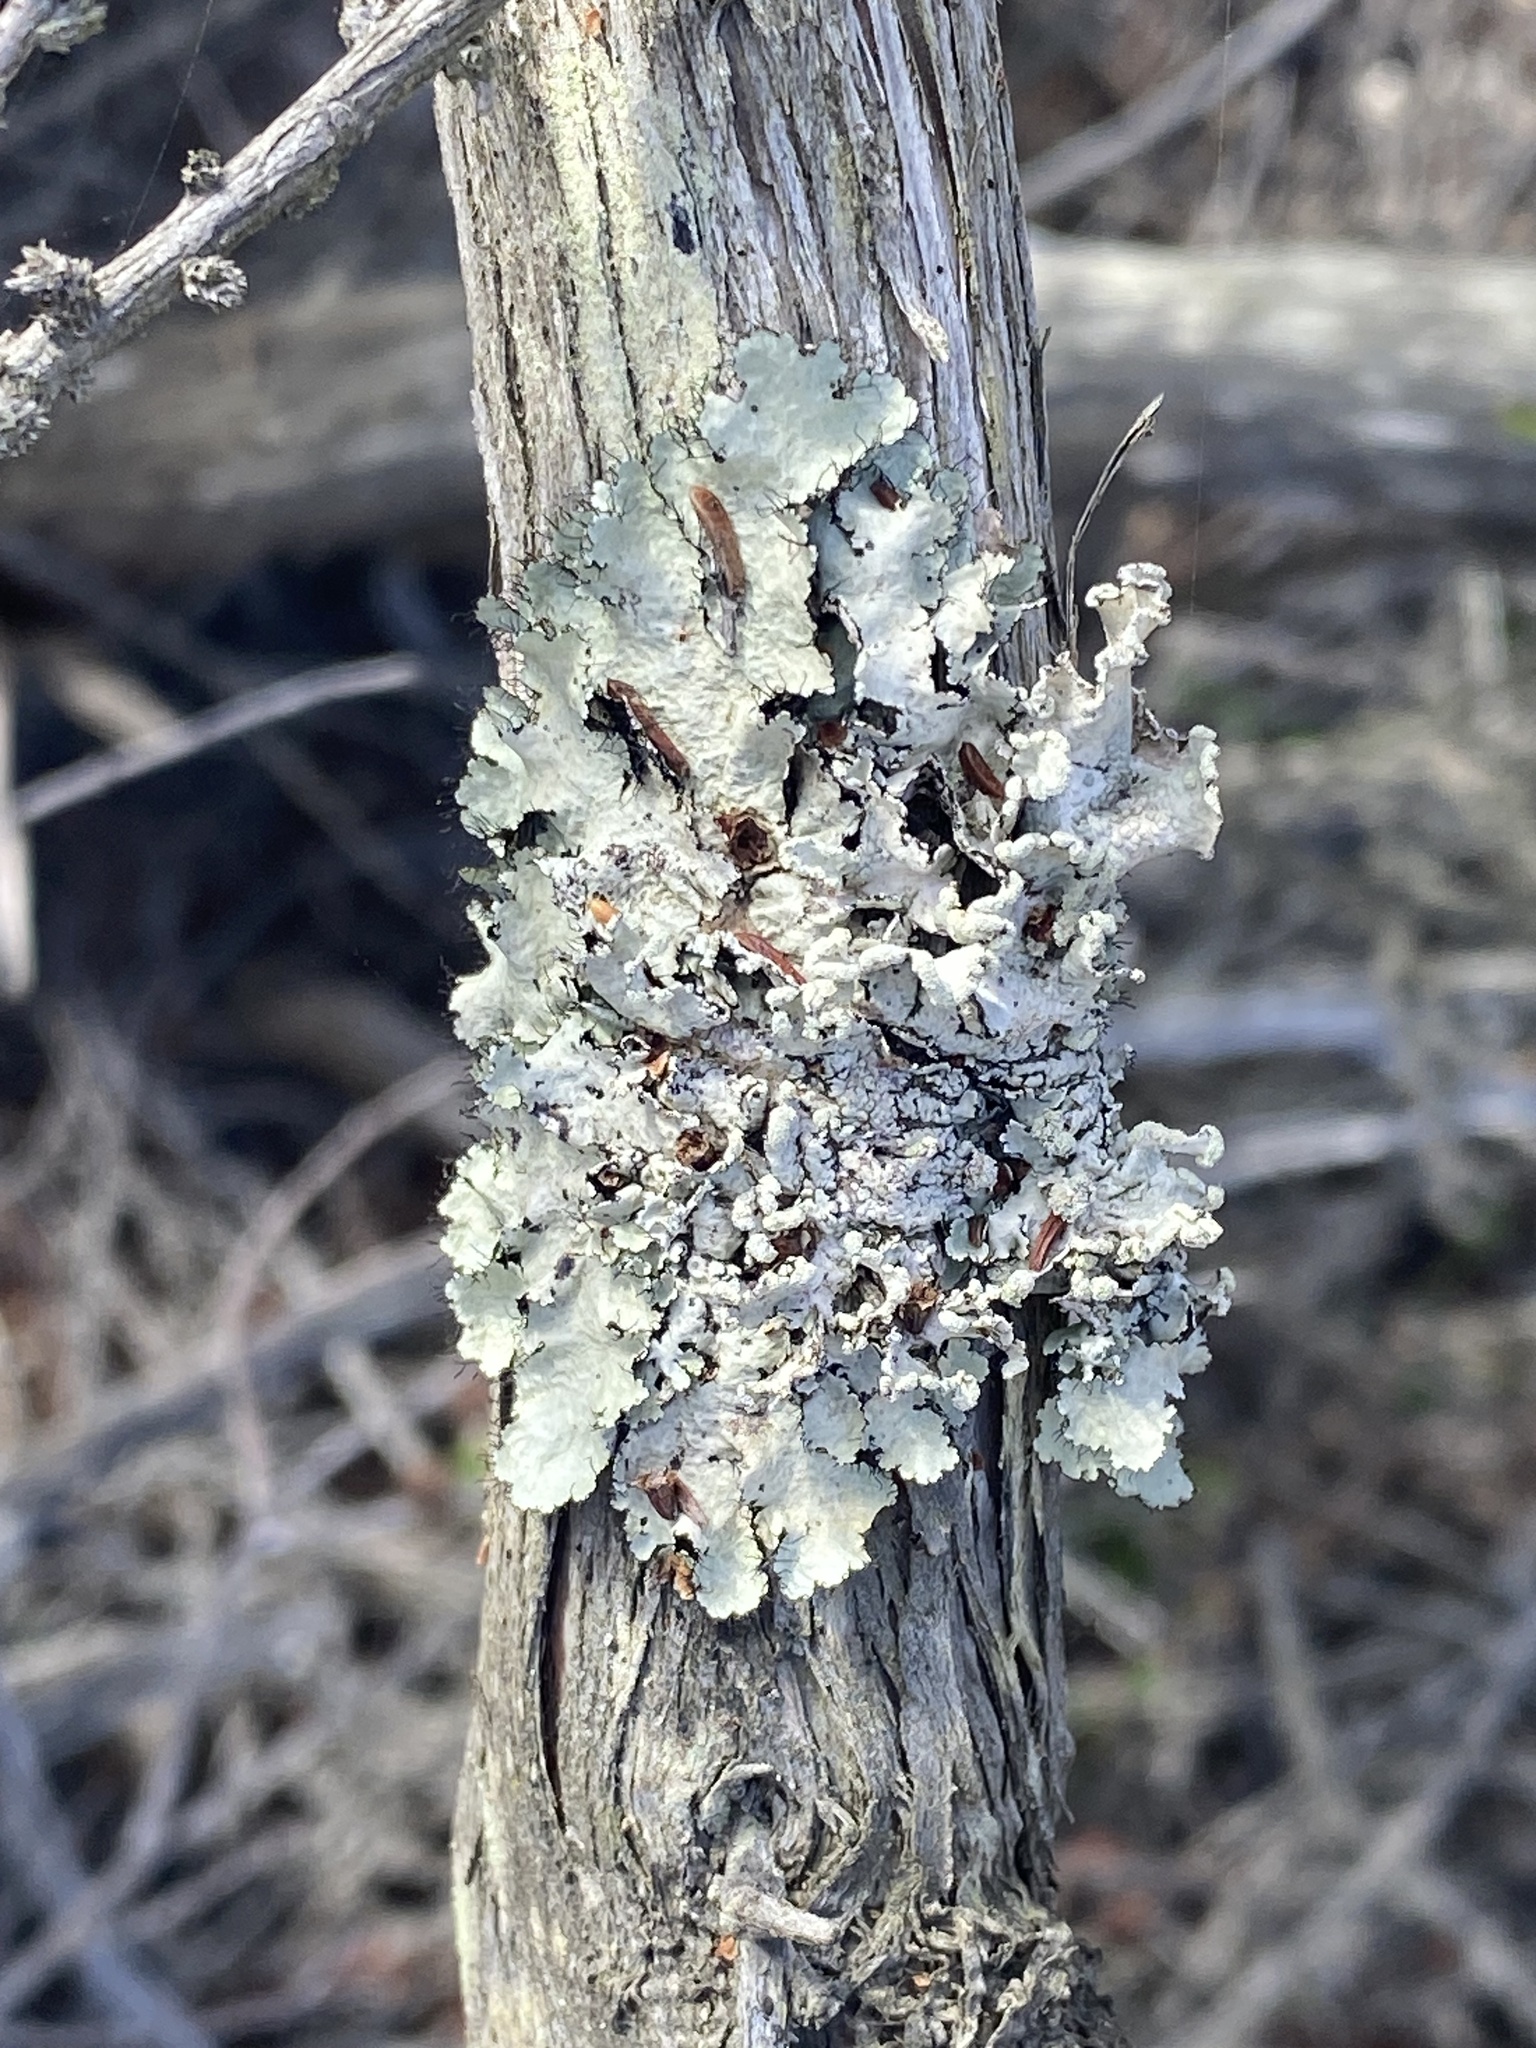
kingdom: Fungi
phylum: Ascomycota
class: Lecanoromycetes
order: Lecanorales
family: Parmeliaceae
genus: Parmotrema
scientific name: Parmotrema reticulatum
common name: Black sheet lichen
